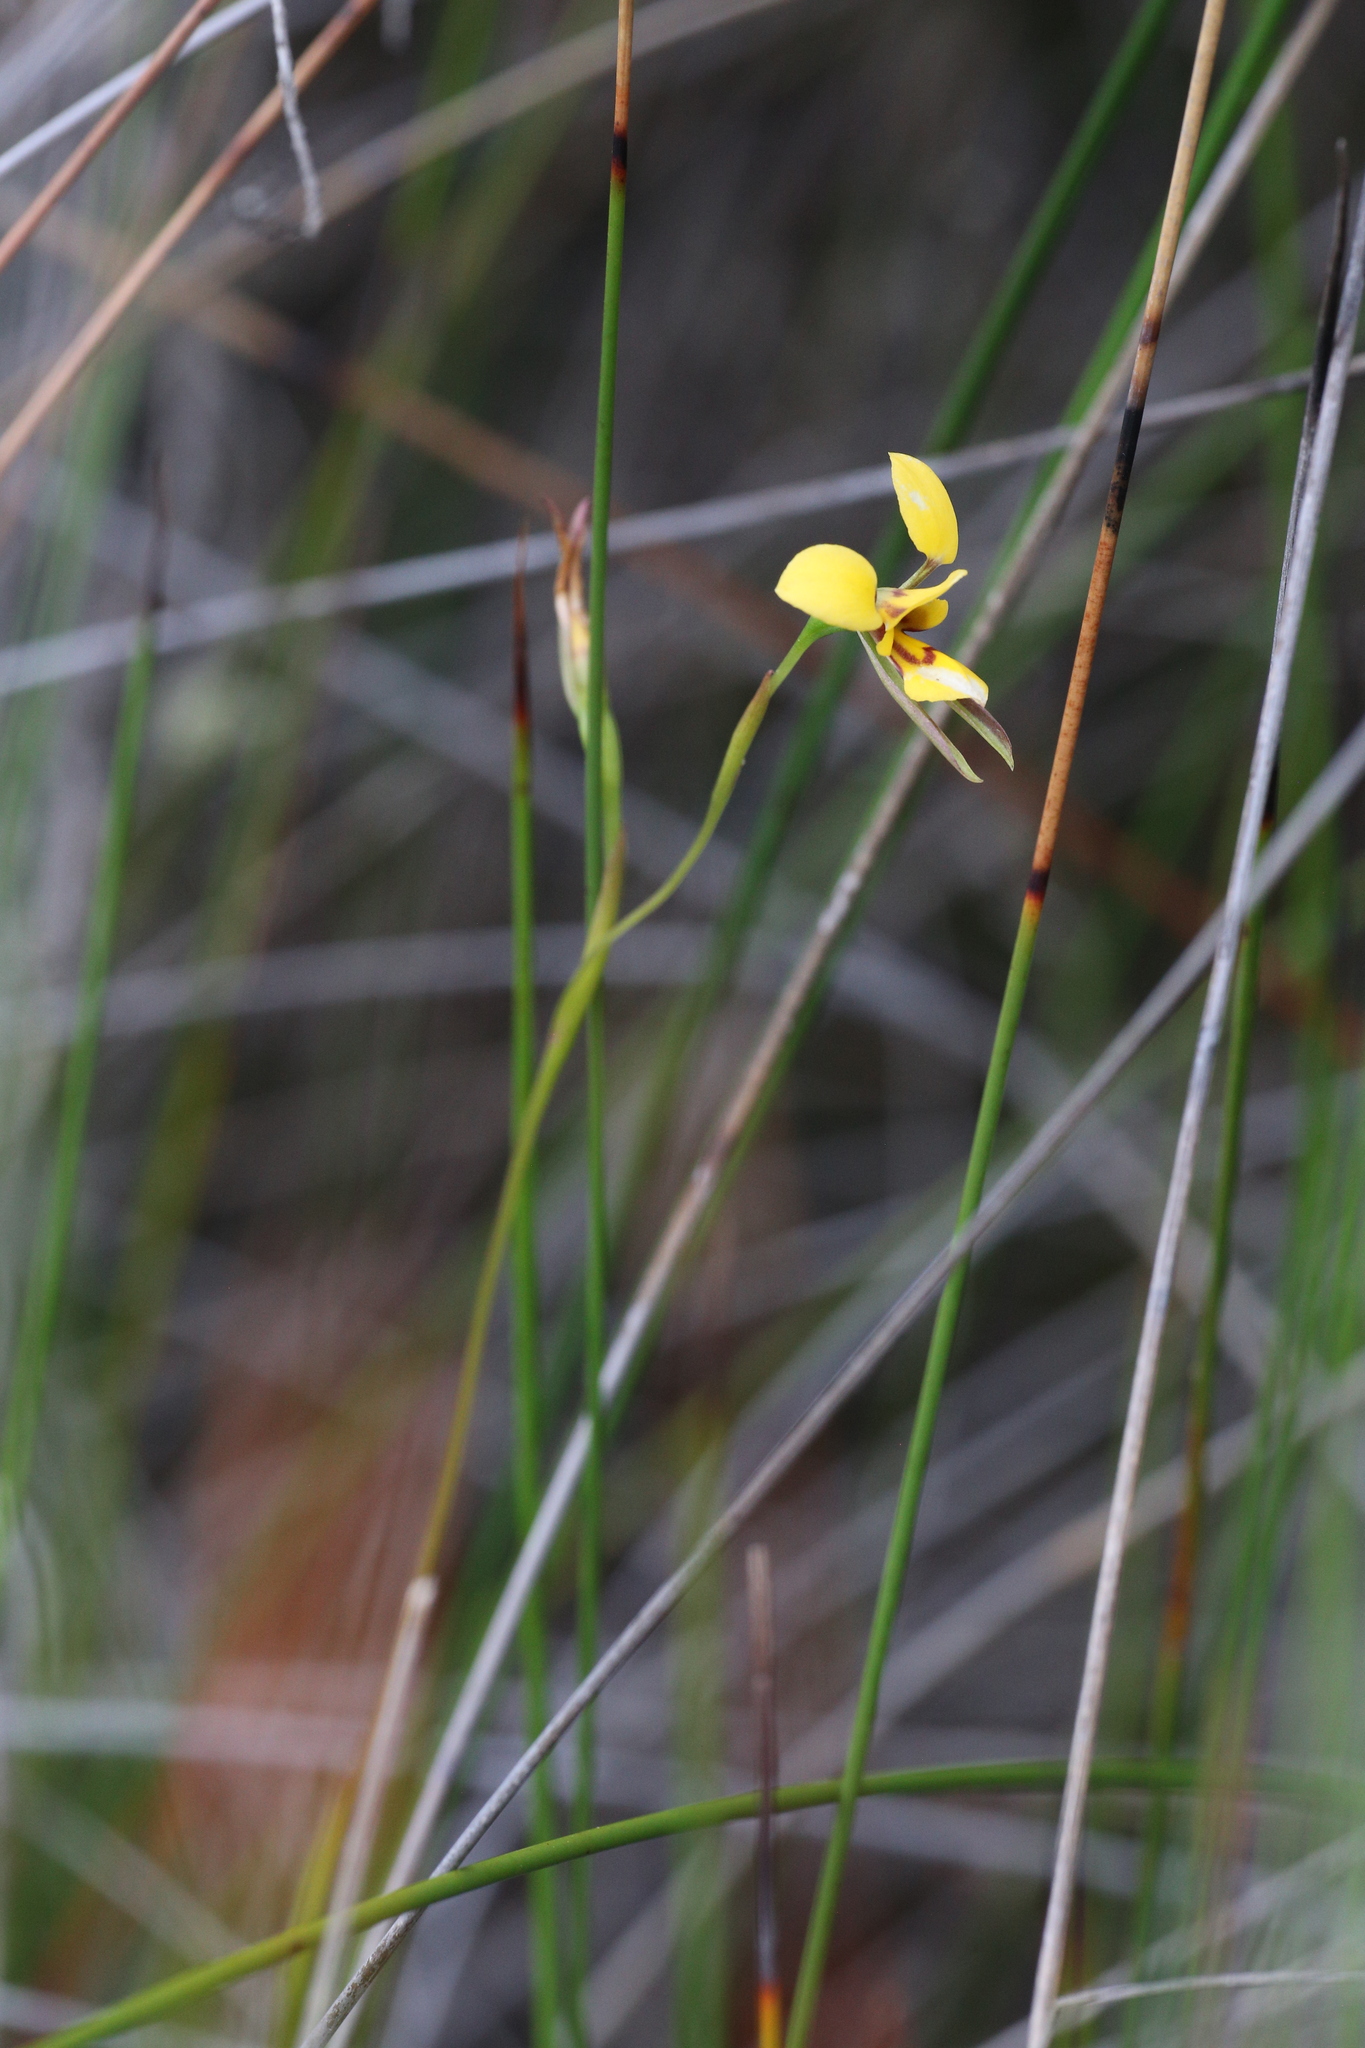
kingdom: Plantae
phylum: Tracheophyta
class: Liliopsida
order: Asparagales
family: Orchidaceae
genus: Diuris
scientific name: Diuris concinna
